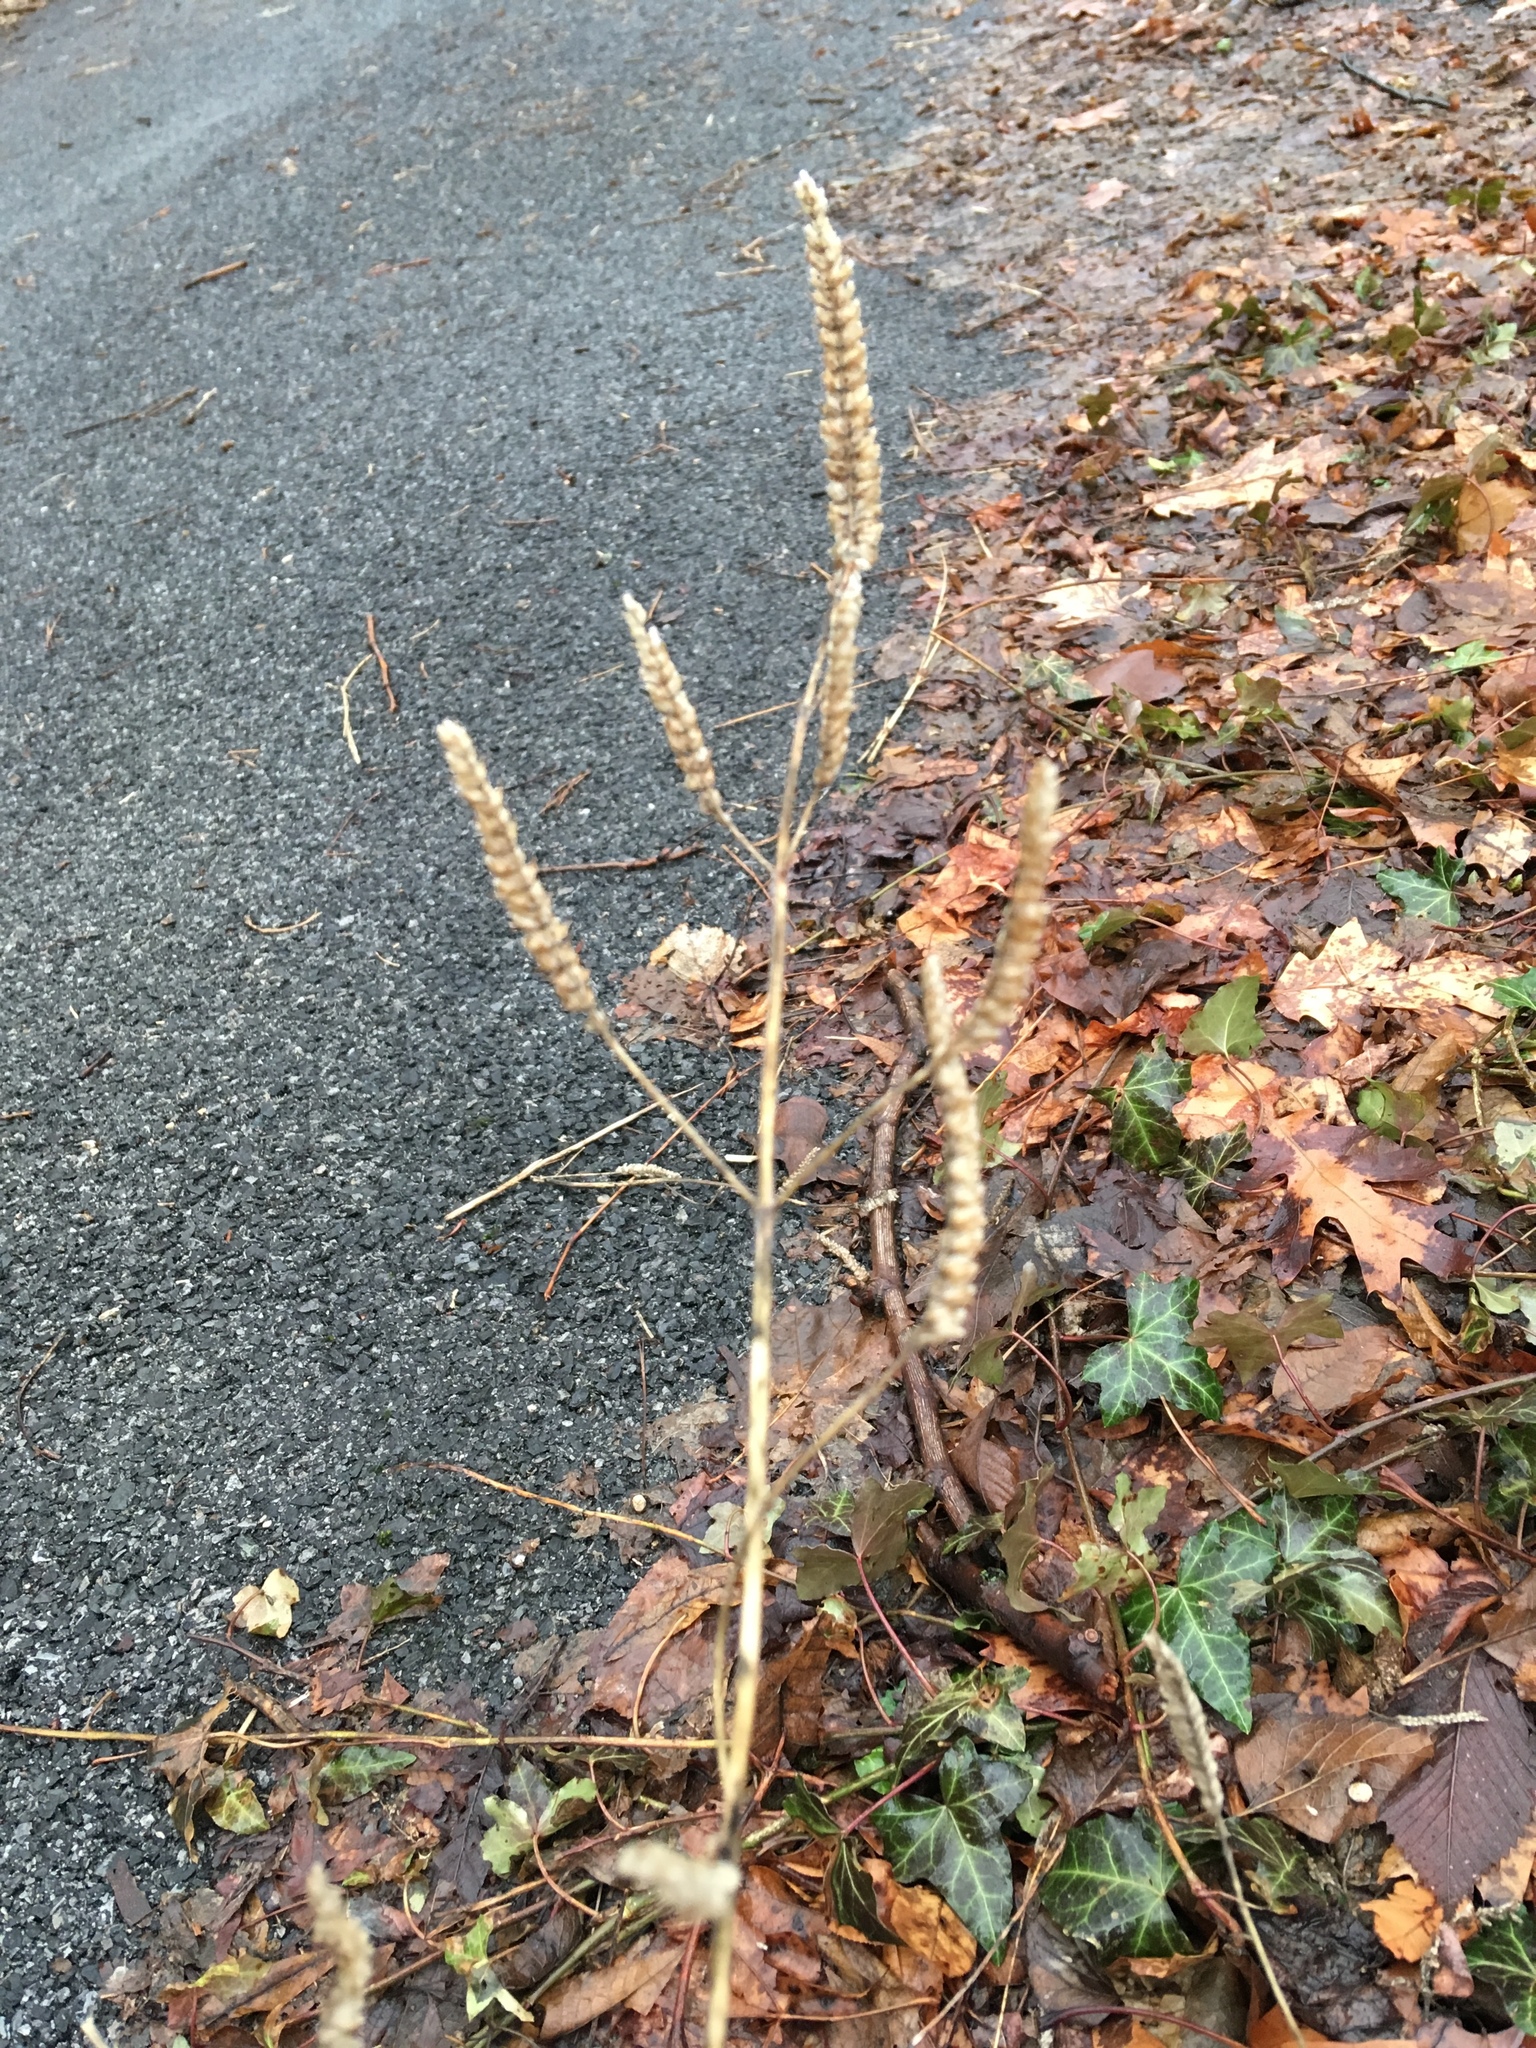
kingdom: Plantae
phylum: Tracheophyta
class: Magnoliopsida
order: Lamiales
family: Lamiaceae
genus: Elsholtzia
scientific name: Elsholtzia ciliata
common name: Ciliate elsholtzia
